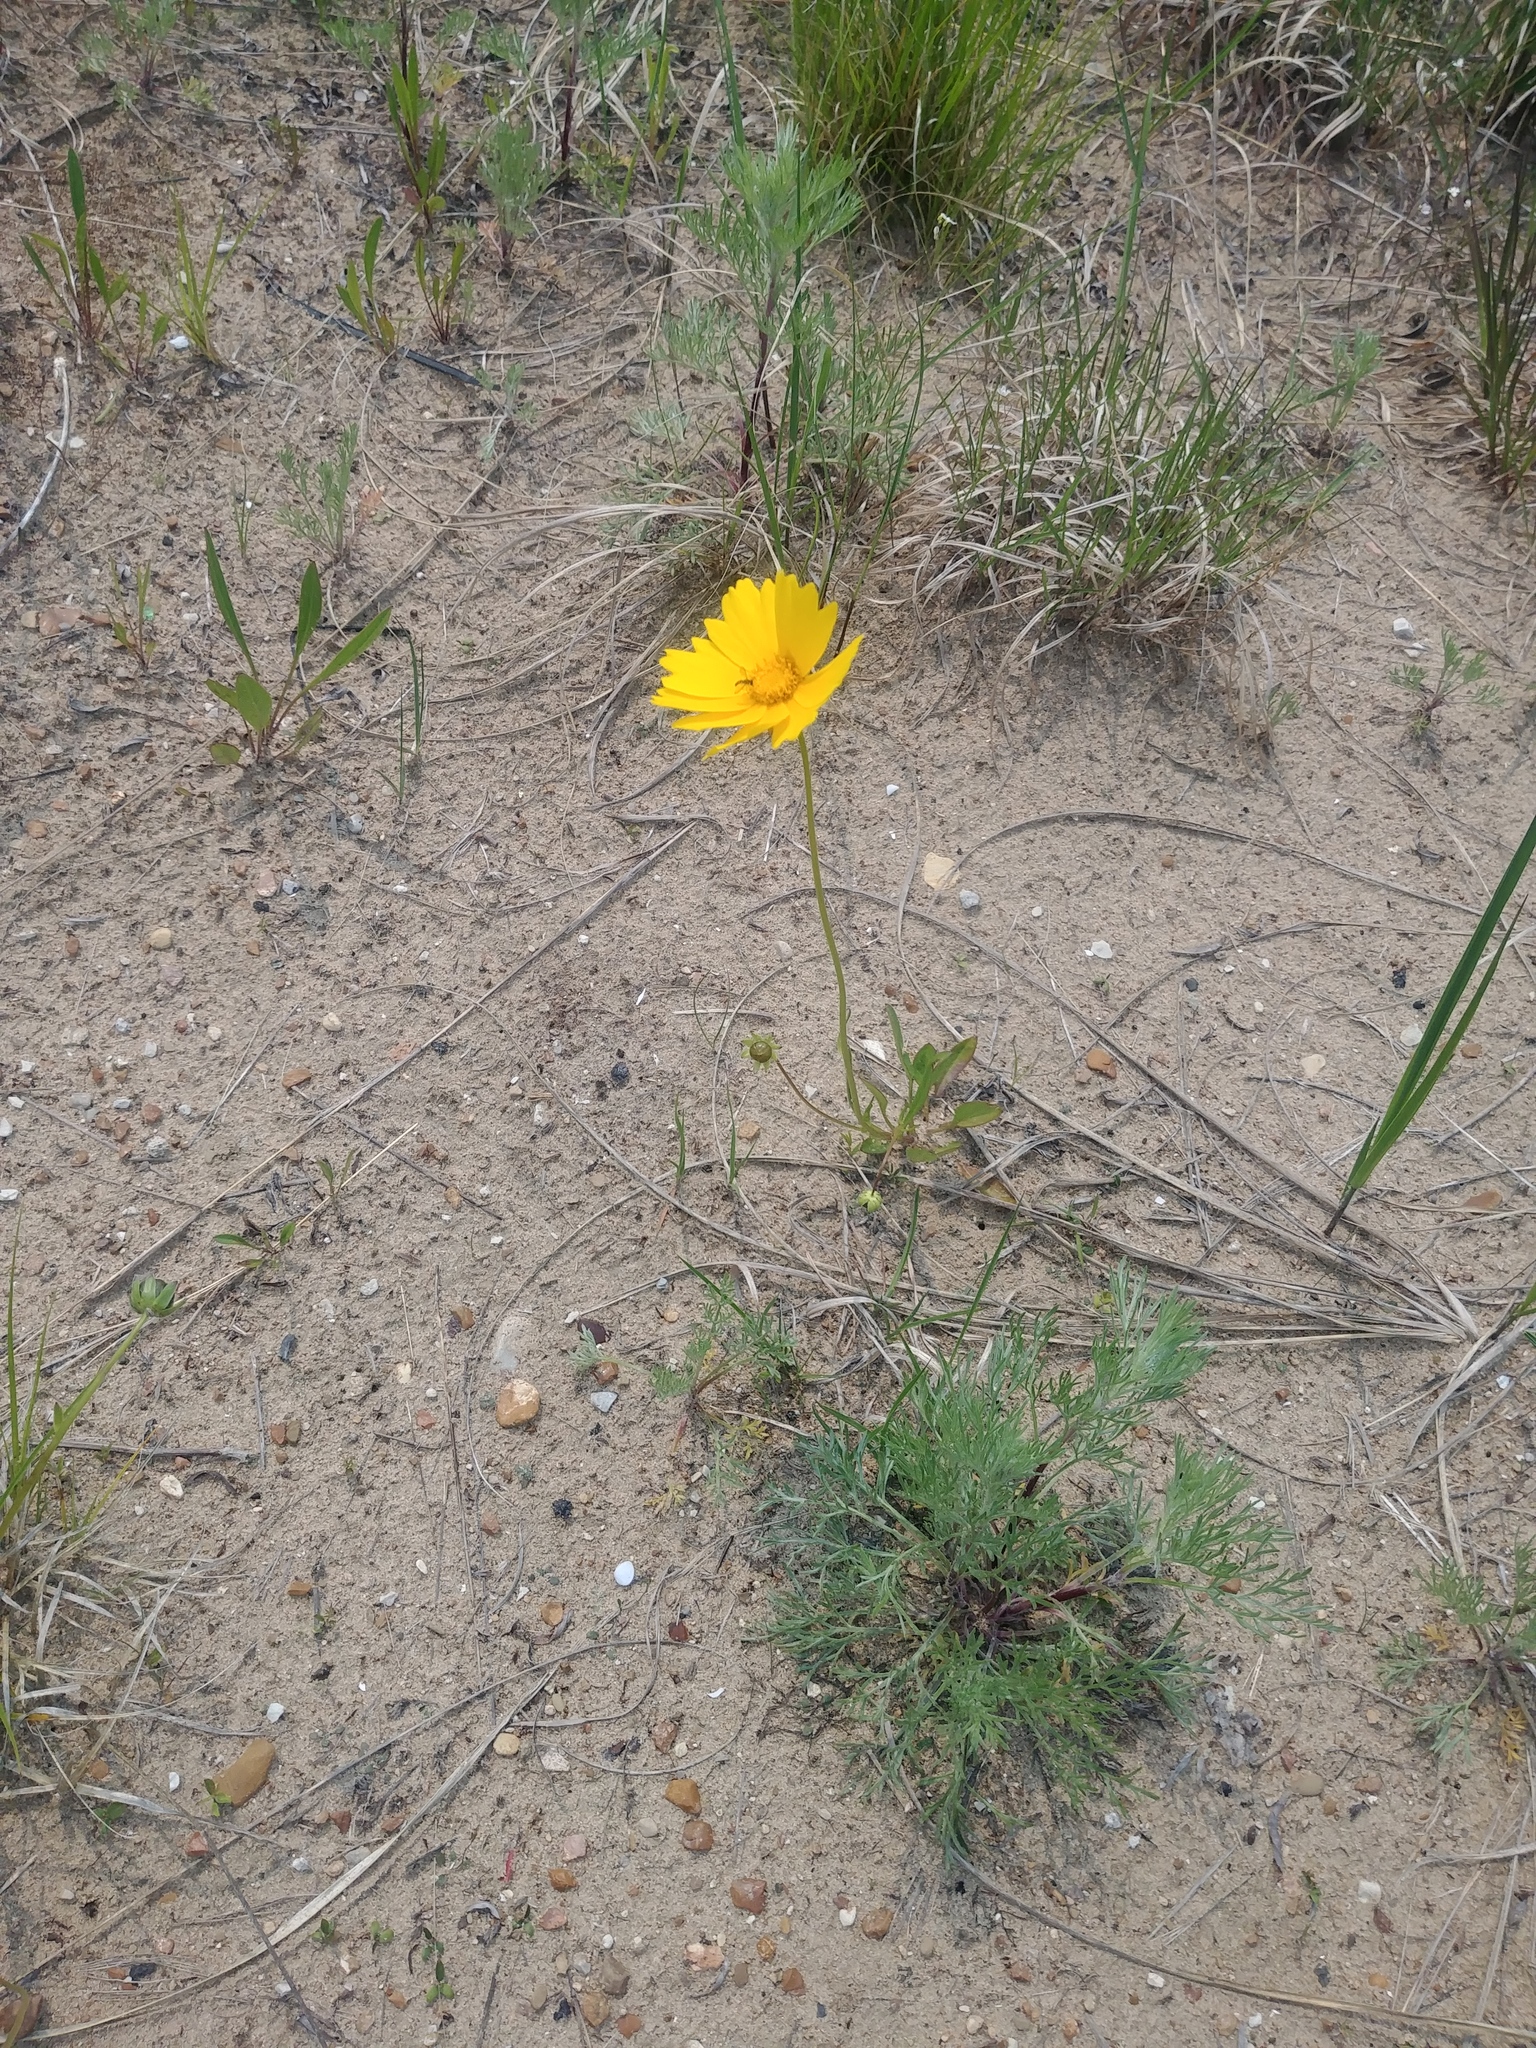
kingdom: Plantae
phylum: Tracheophyta
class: Magnoliopsida
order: Asterales
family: Asteraceae
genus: Coreopsis
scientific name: Coreopsis lanceolata
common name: Garden coreopsis
